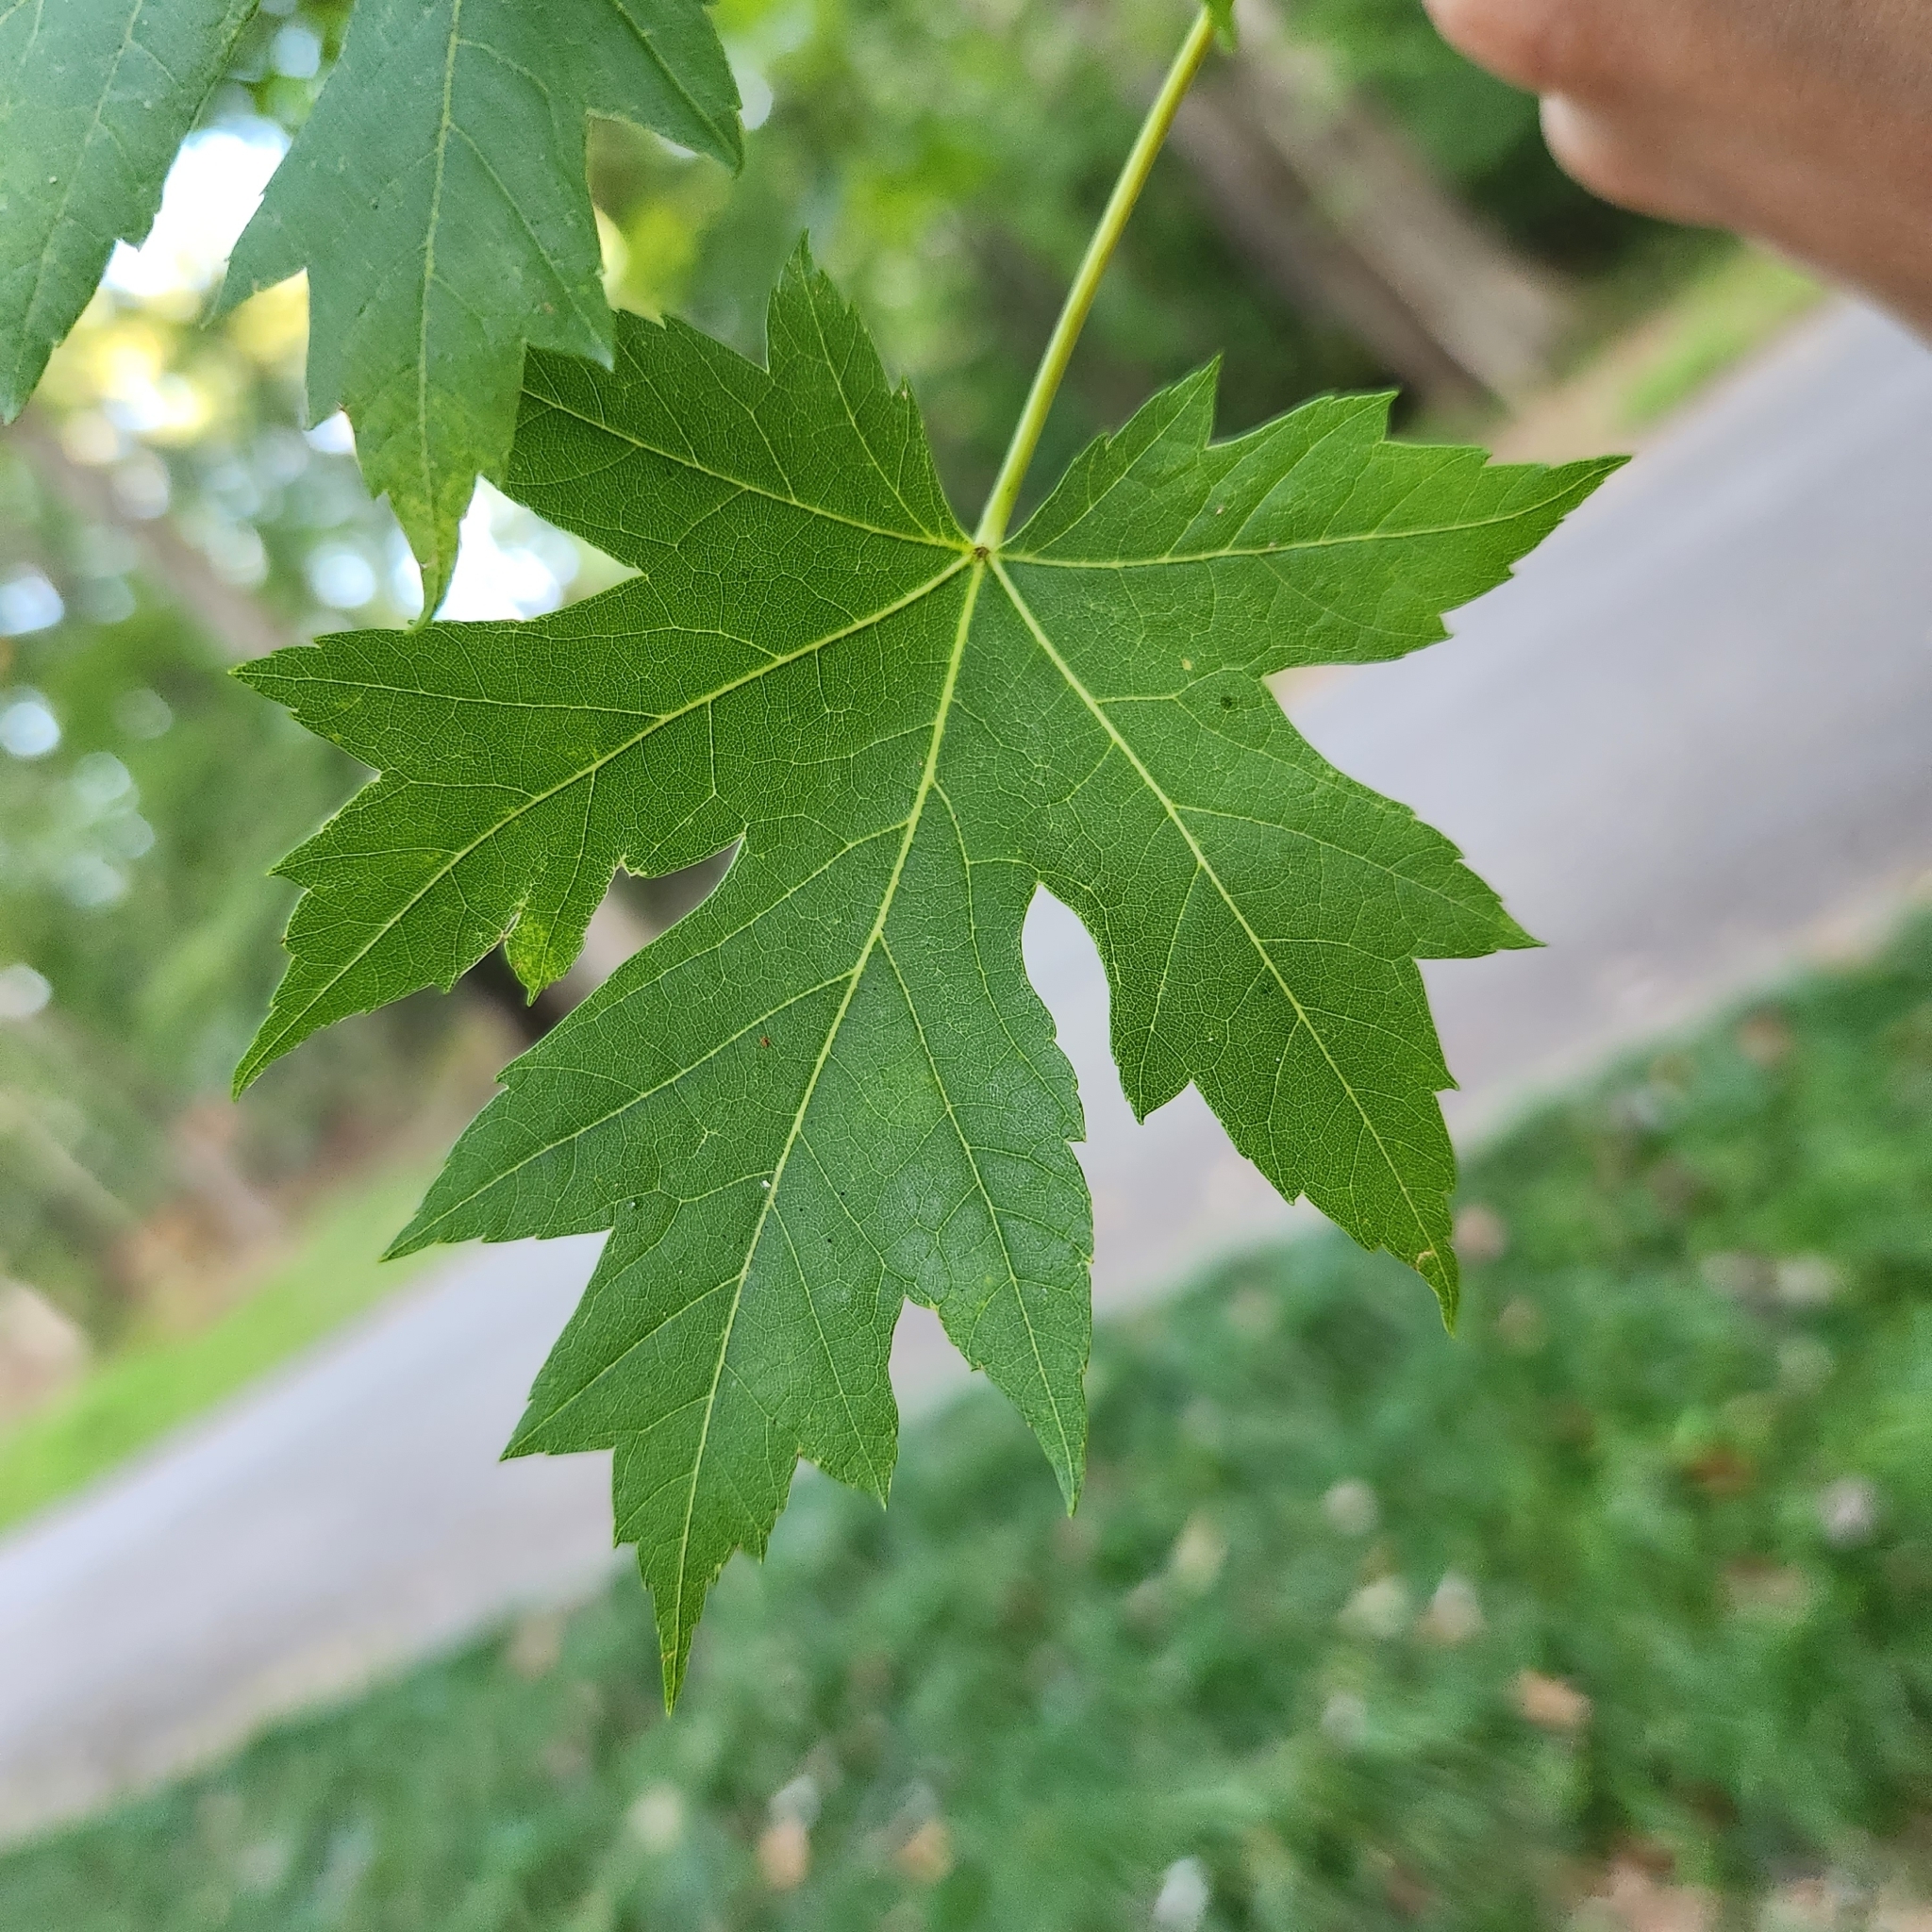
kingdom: Plantae
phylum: Tracheophyta
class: Magnoliopsida
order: Sapindales
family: Sapindaceae
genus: Acer
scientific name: Acer saccharinum
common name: Silver maple
